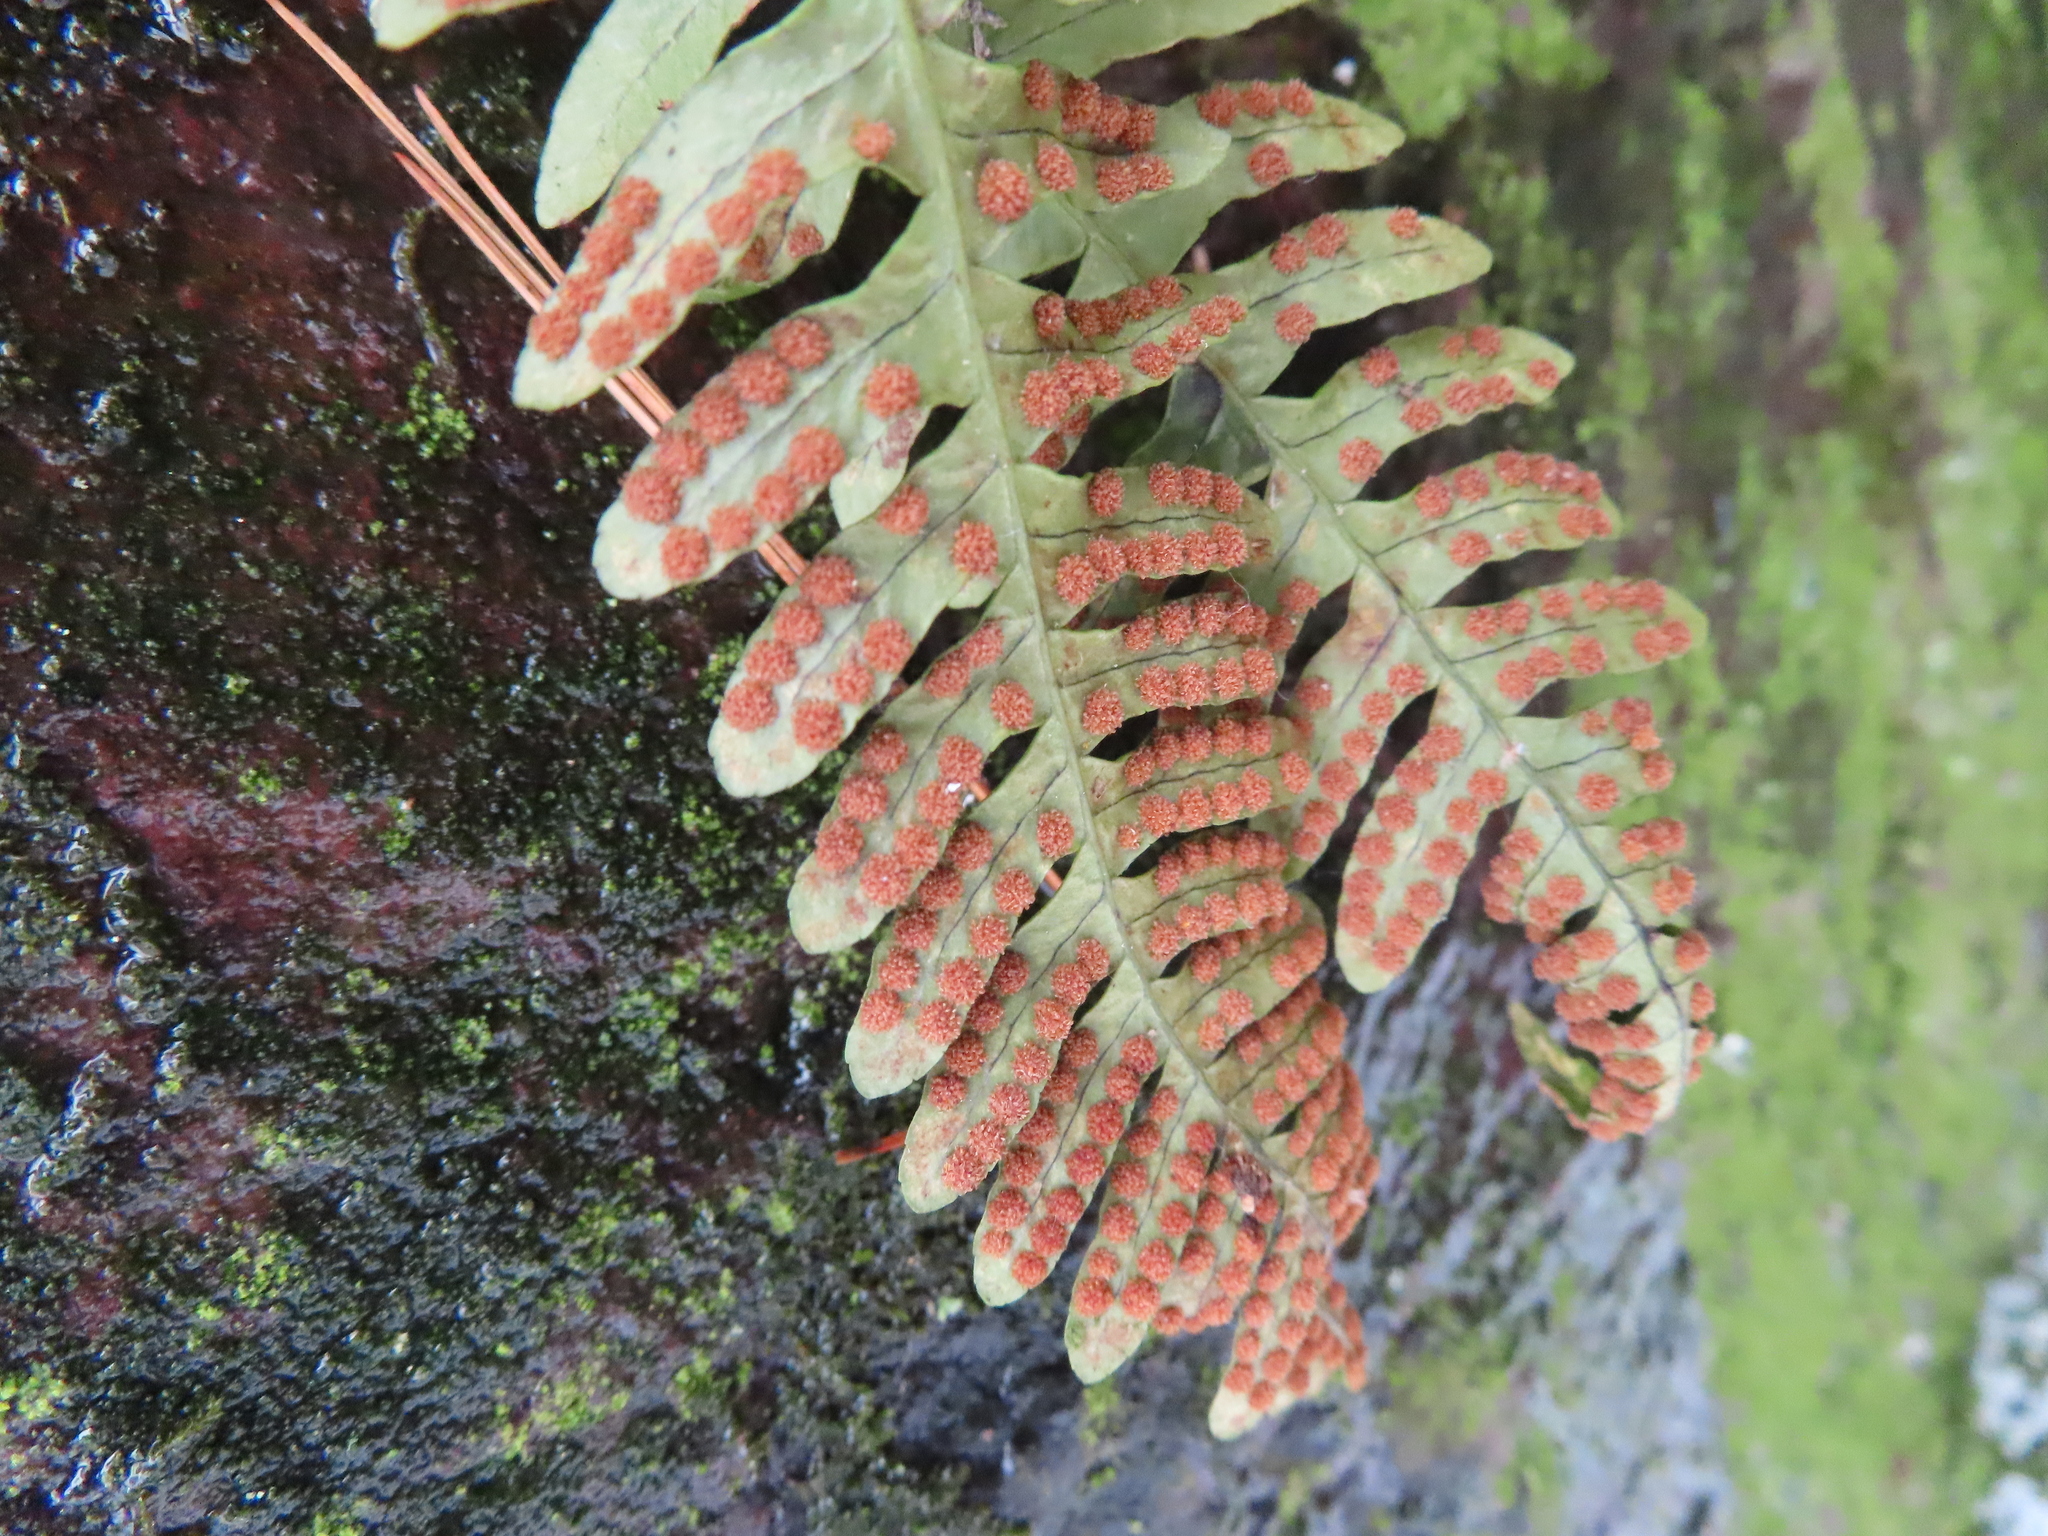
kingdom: Plantae
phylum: Tracheophyta
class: Polypodiopsida
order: Polypodiales
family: Polypodiaceae
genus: Polypodium
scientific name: Polypodium virginianum
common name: American wall fern
